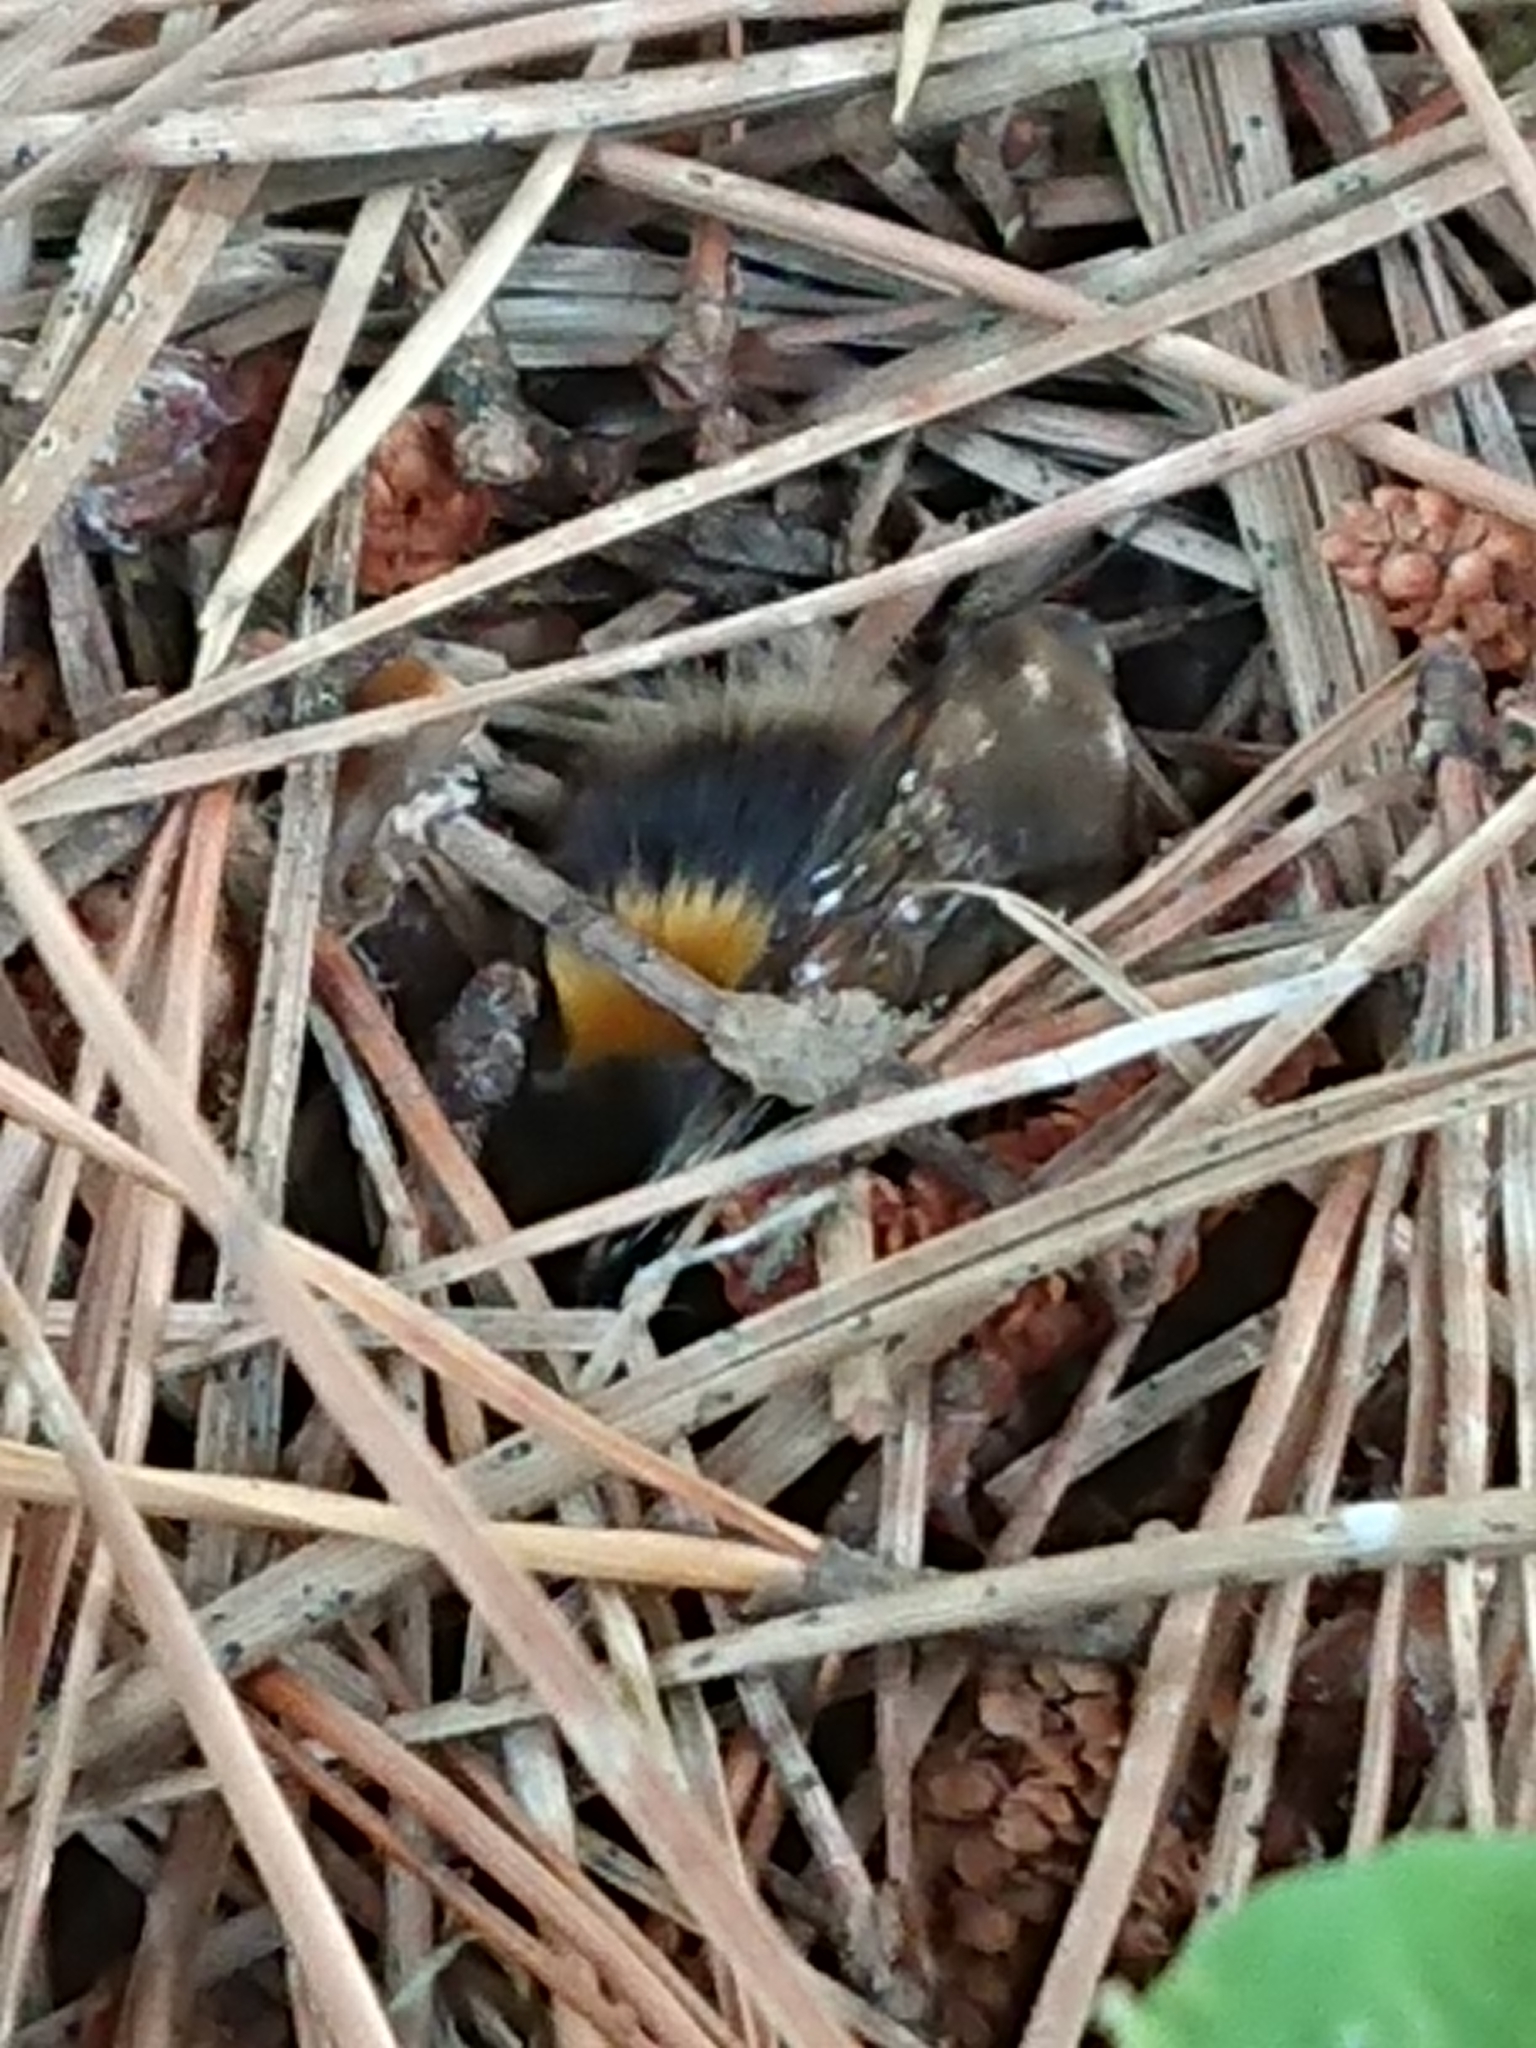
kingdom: Animalia
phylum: Arthropoda
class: Insecta
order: Hymenoptera
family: Apidae
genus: Bombus
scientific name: Bombus terrestris
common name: Buff-tailed bumblebee
